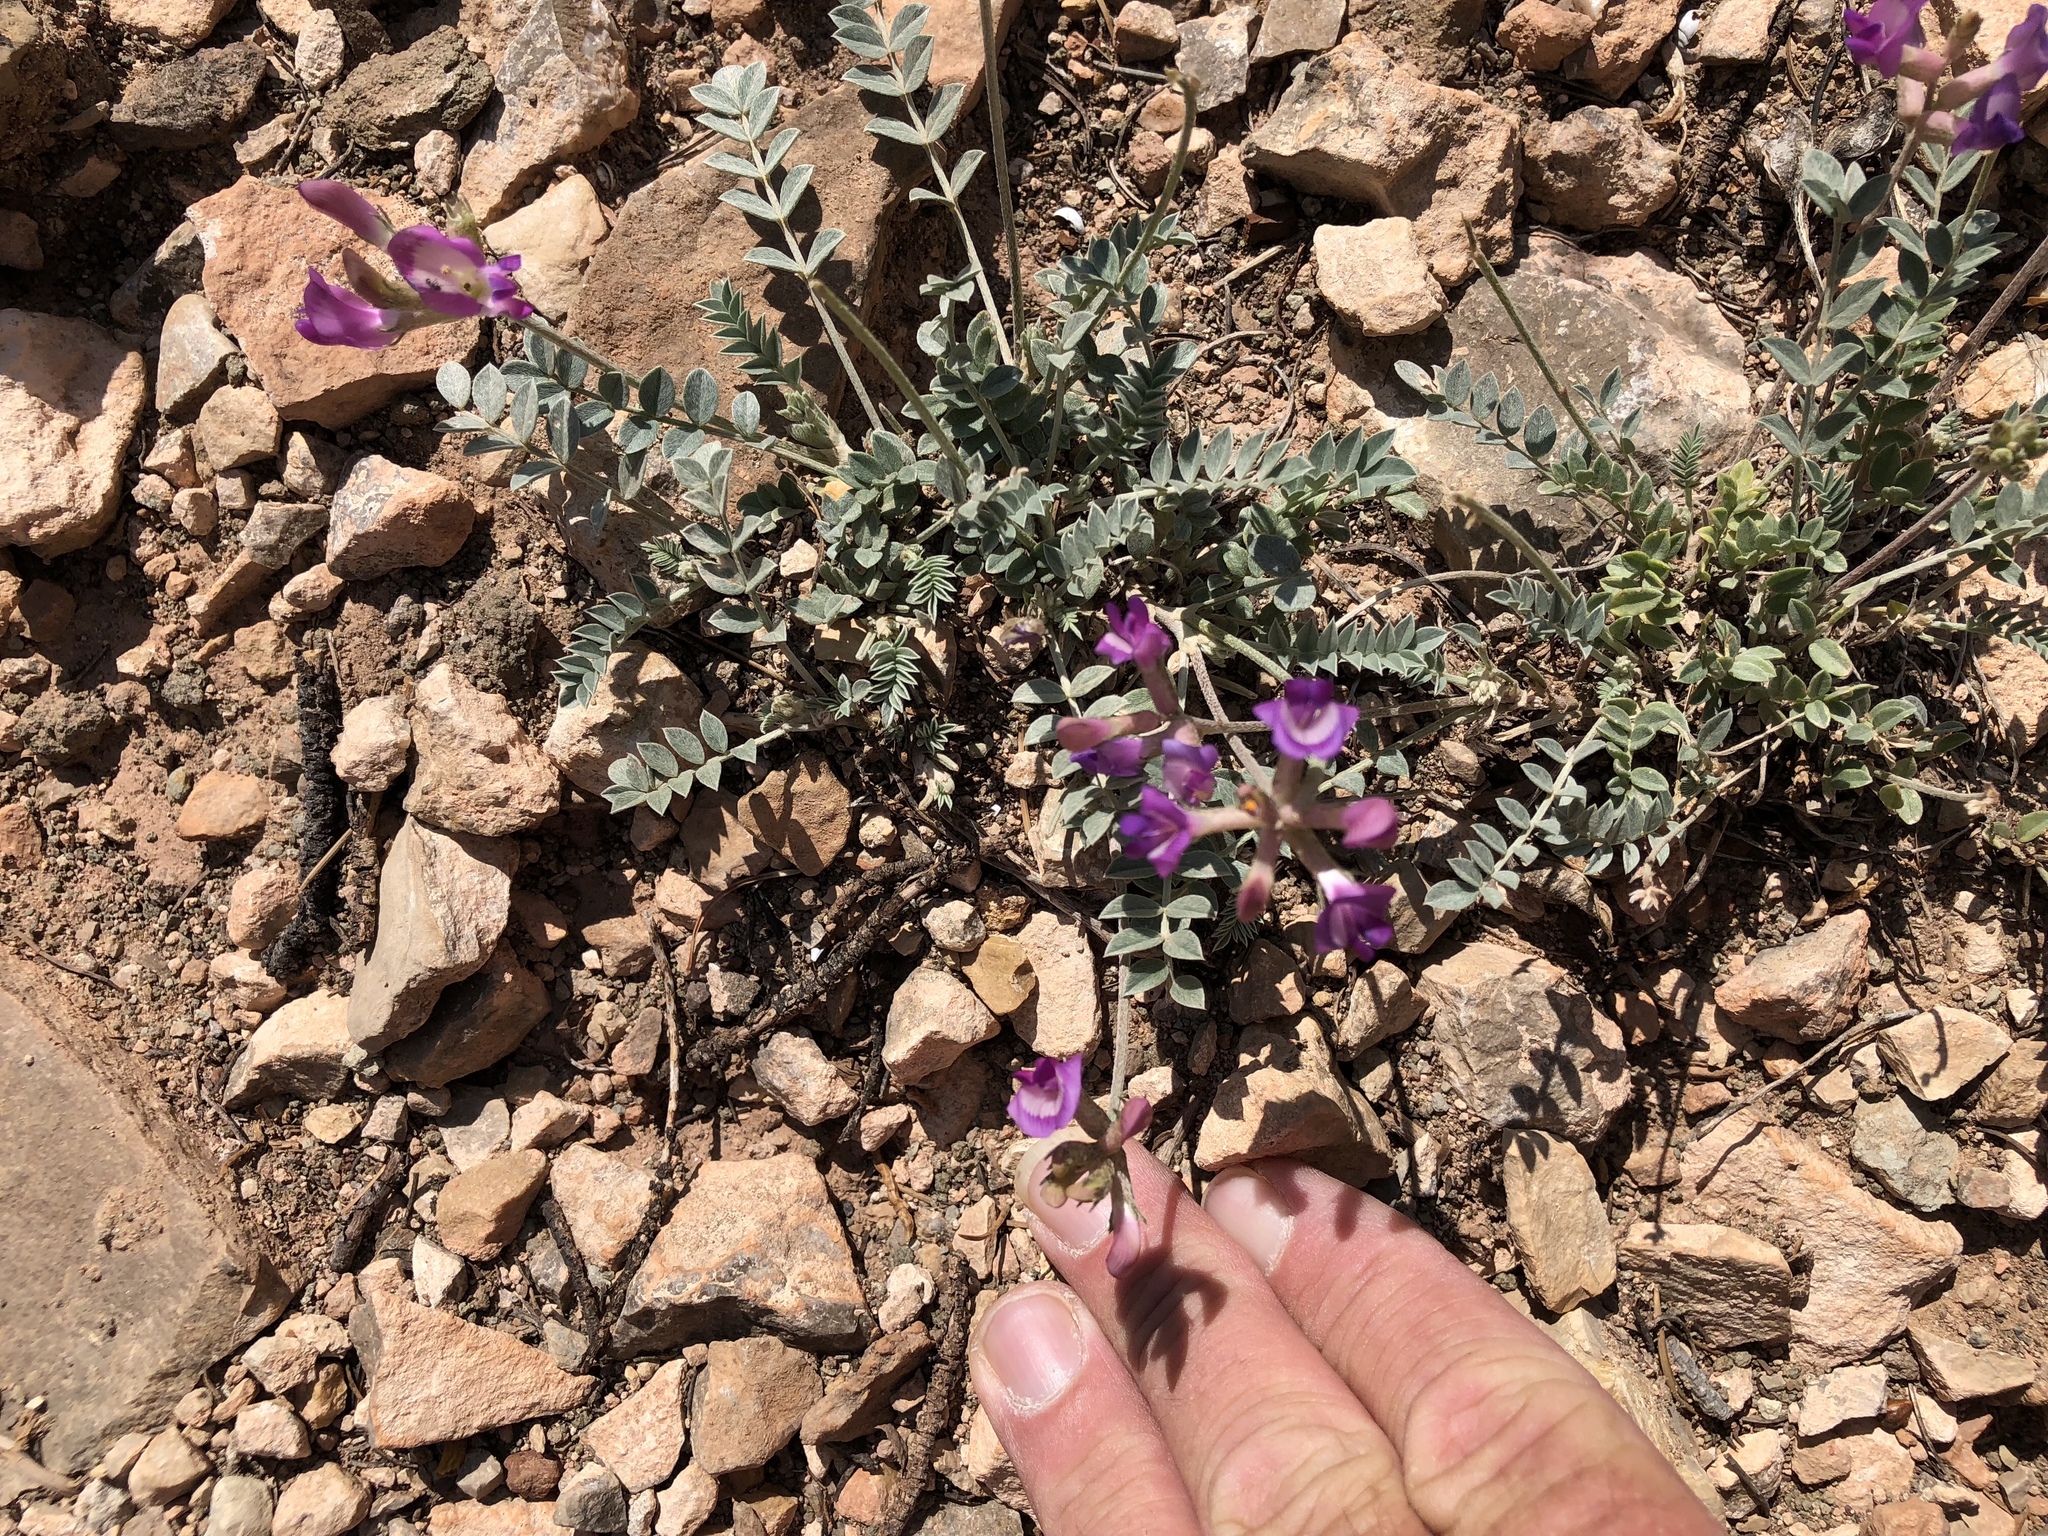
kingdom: Plantae
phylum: Tracheophyta
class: Magnoliopsida
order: Fabales
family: Fabaceae
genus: Astragalus
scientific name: Astragalus missouriensis
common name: Missouri milk-vetch
